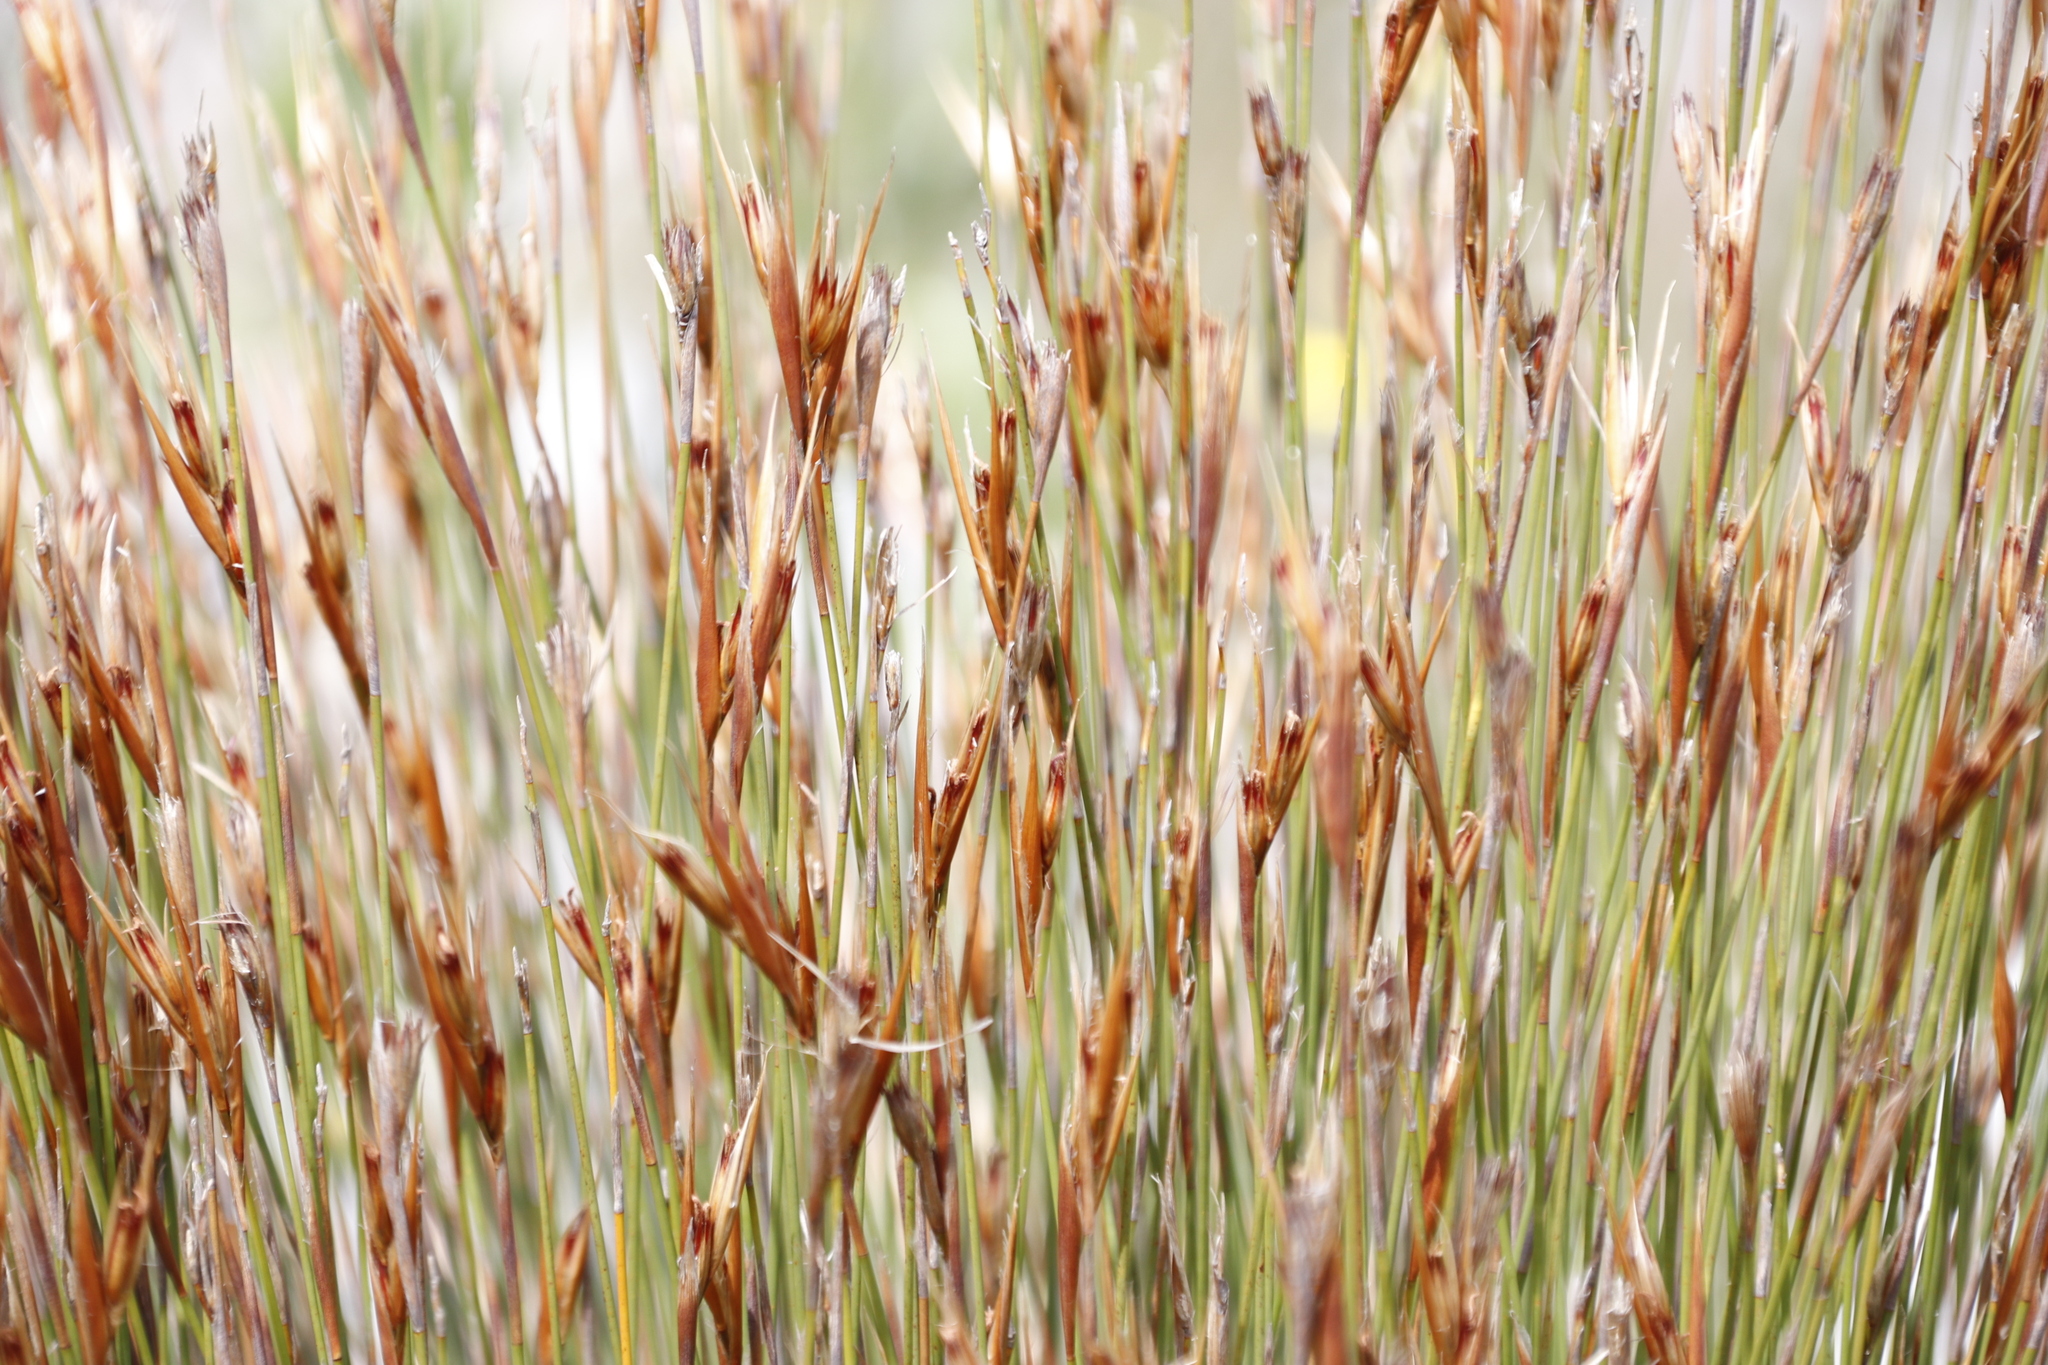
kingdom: Plantae
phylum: Tracheophyta
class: Liliopsida
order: Poales
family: Restionaceae
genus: Hypodiscus
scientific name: Hypodiscus argenteus
